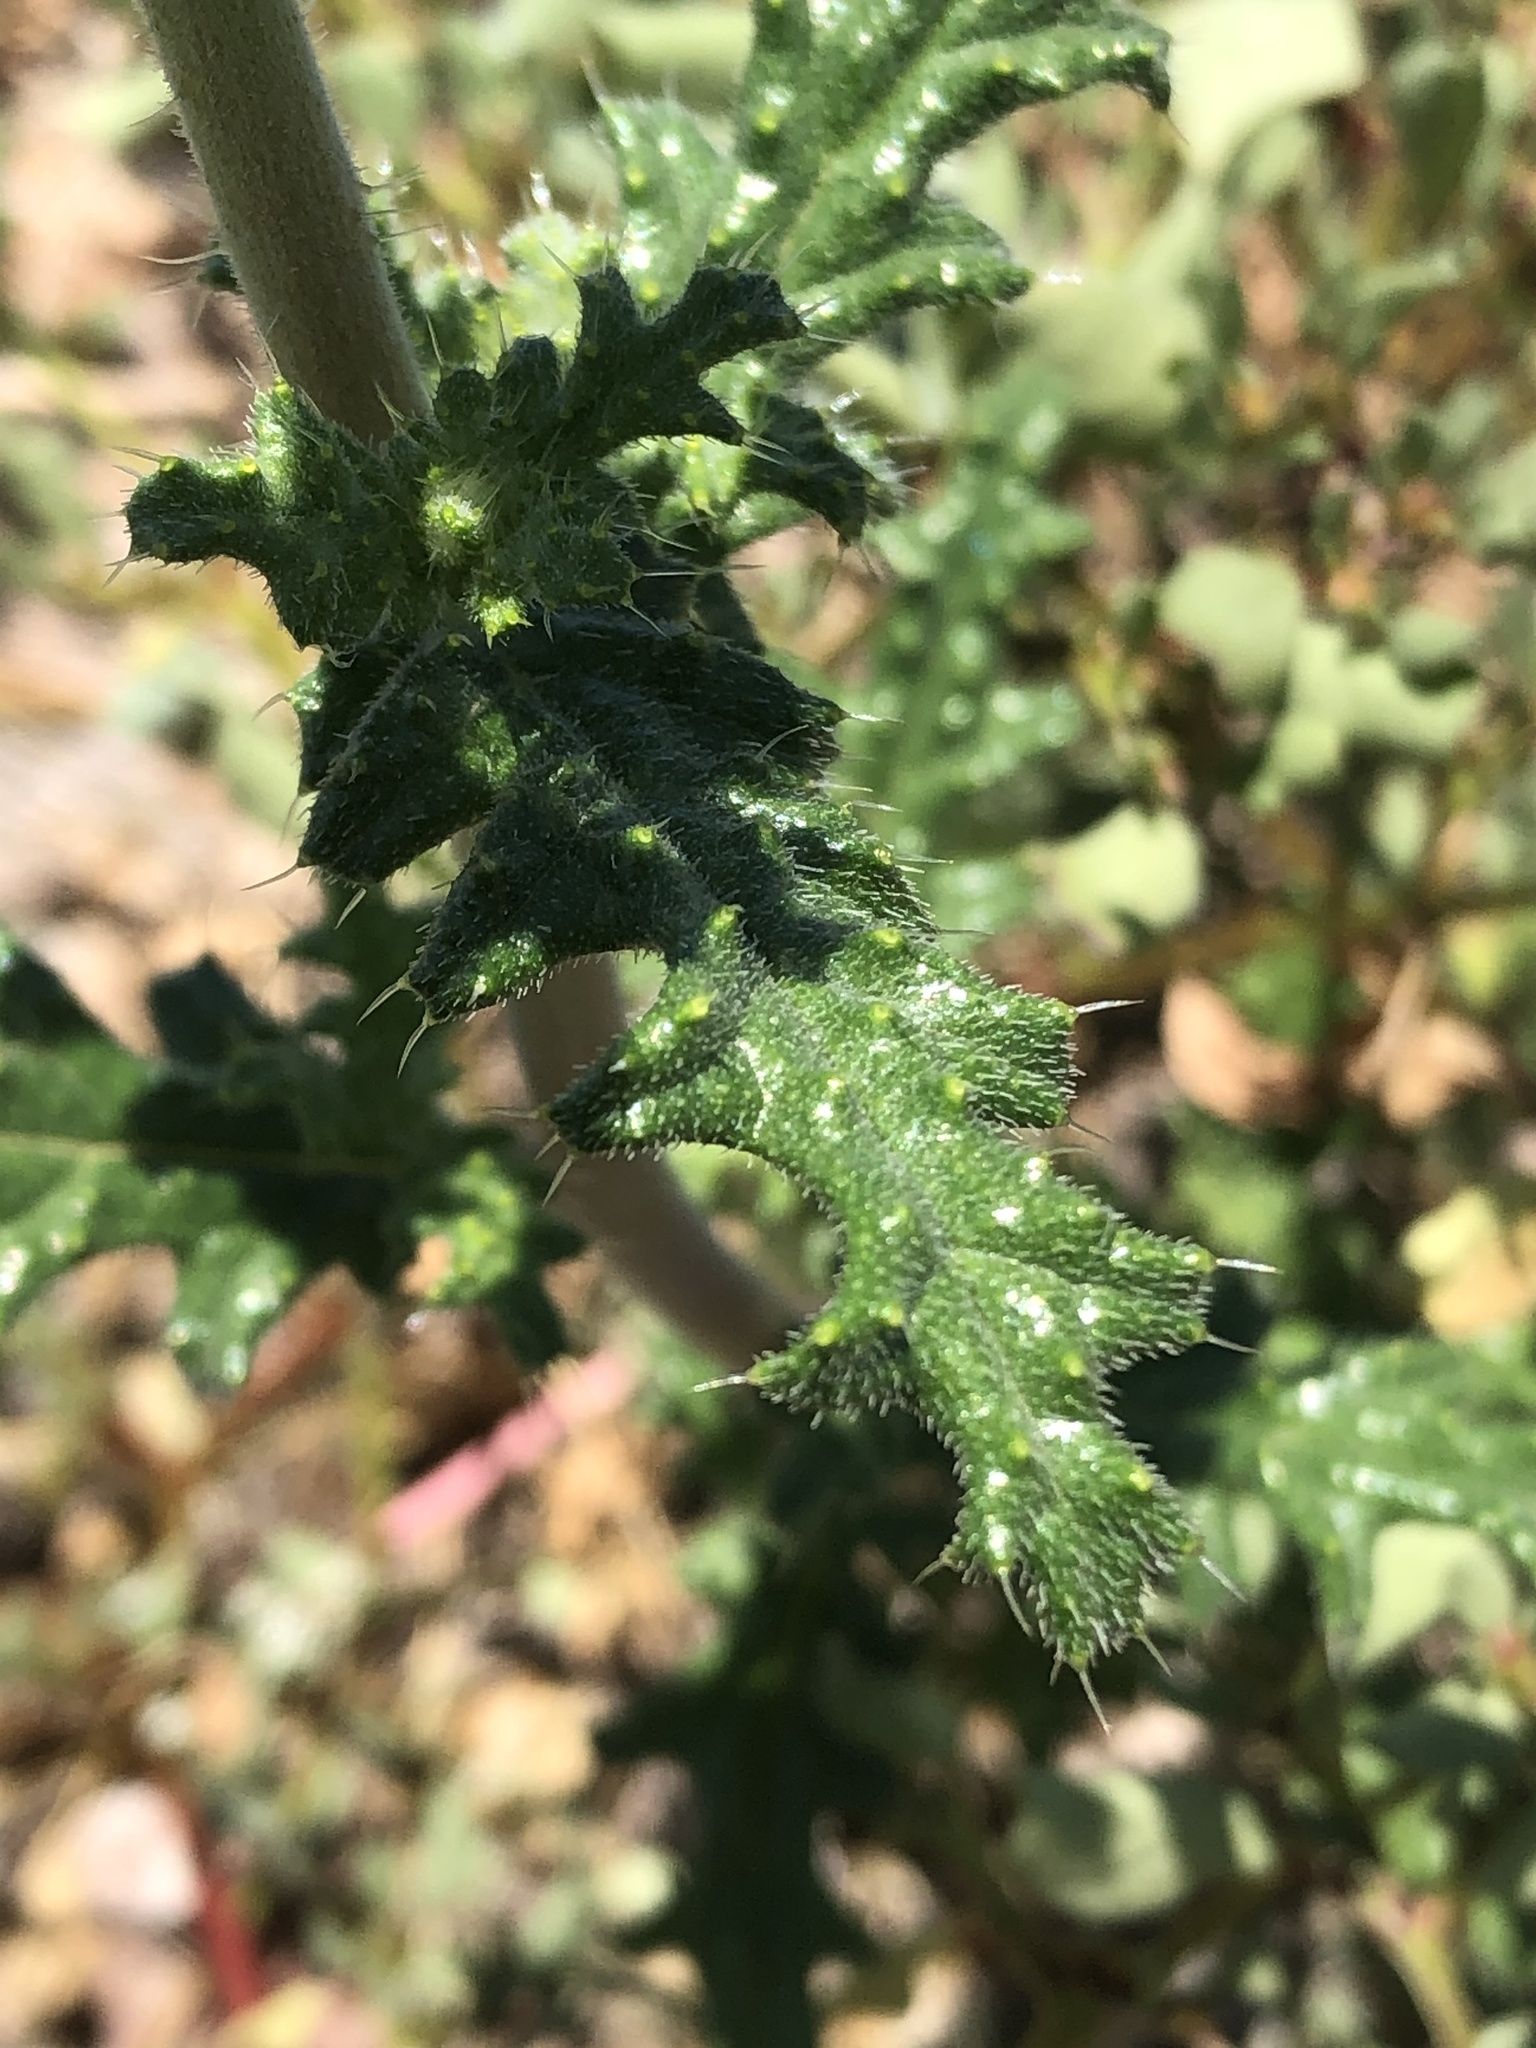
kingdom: Plantae
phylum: Tracheophyta
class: Magnoliopsida
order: Cornales
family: Loasaceae
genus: Cevallia
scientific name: Cevallia sinuata
